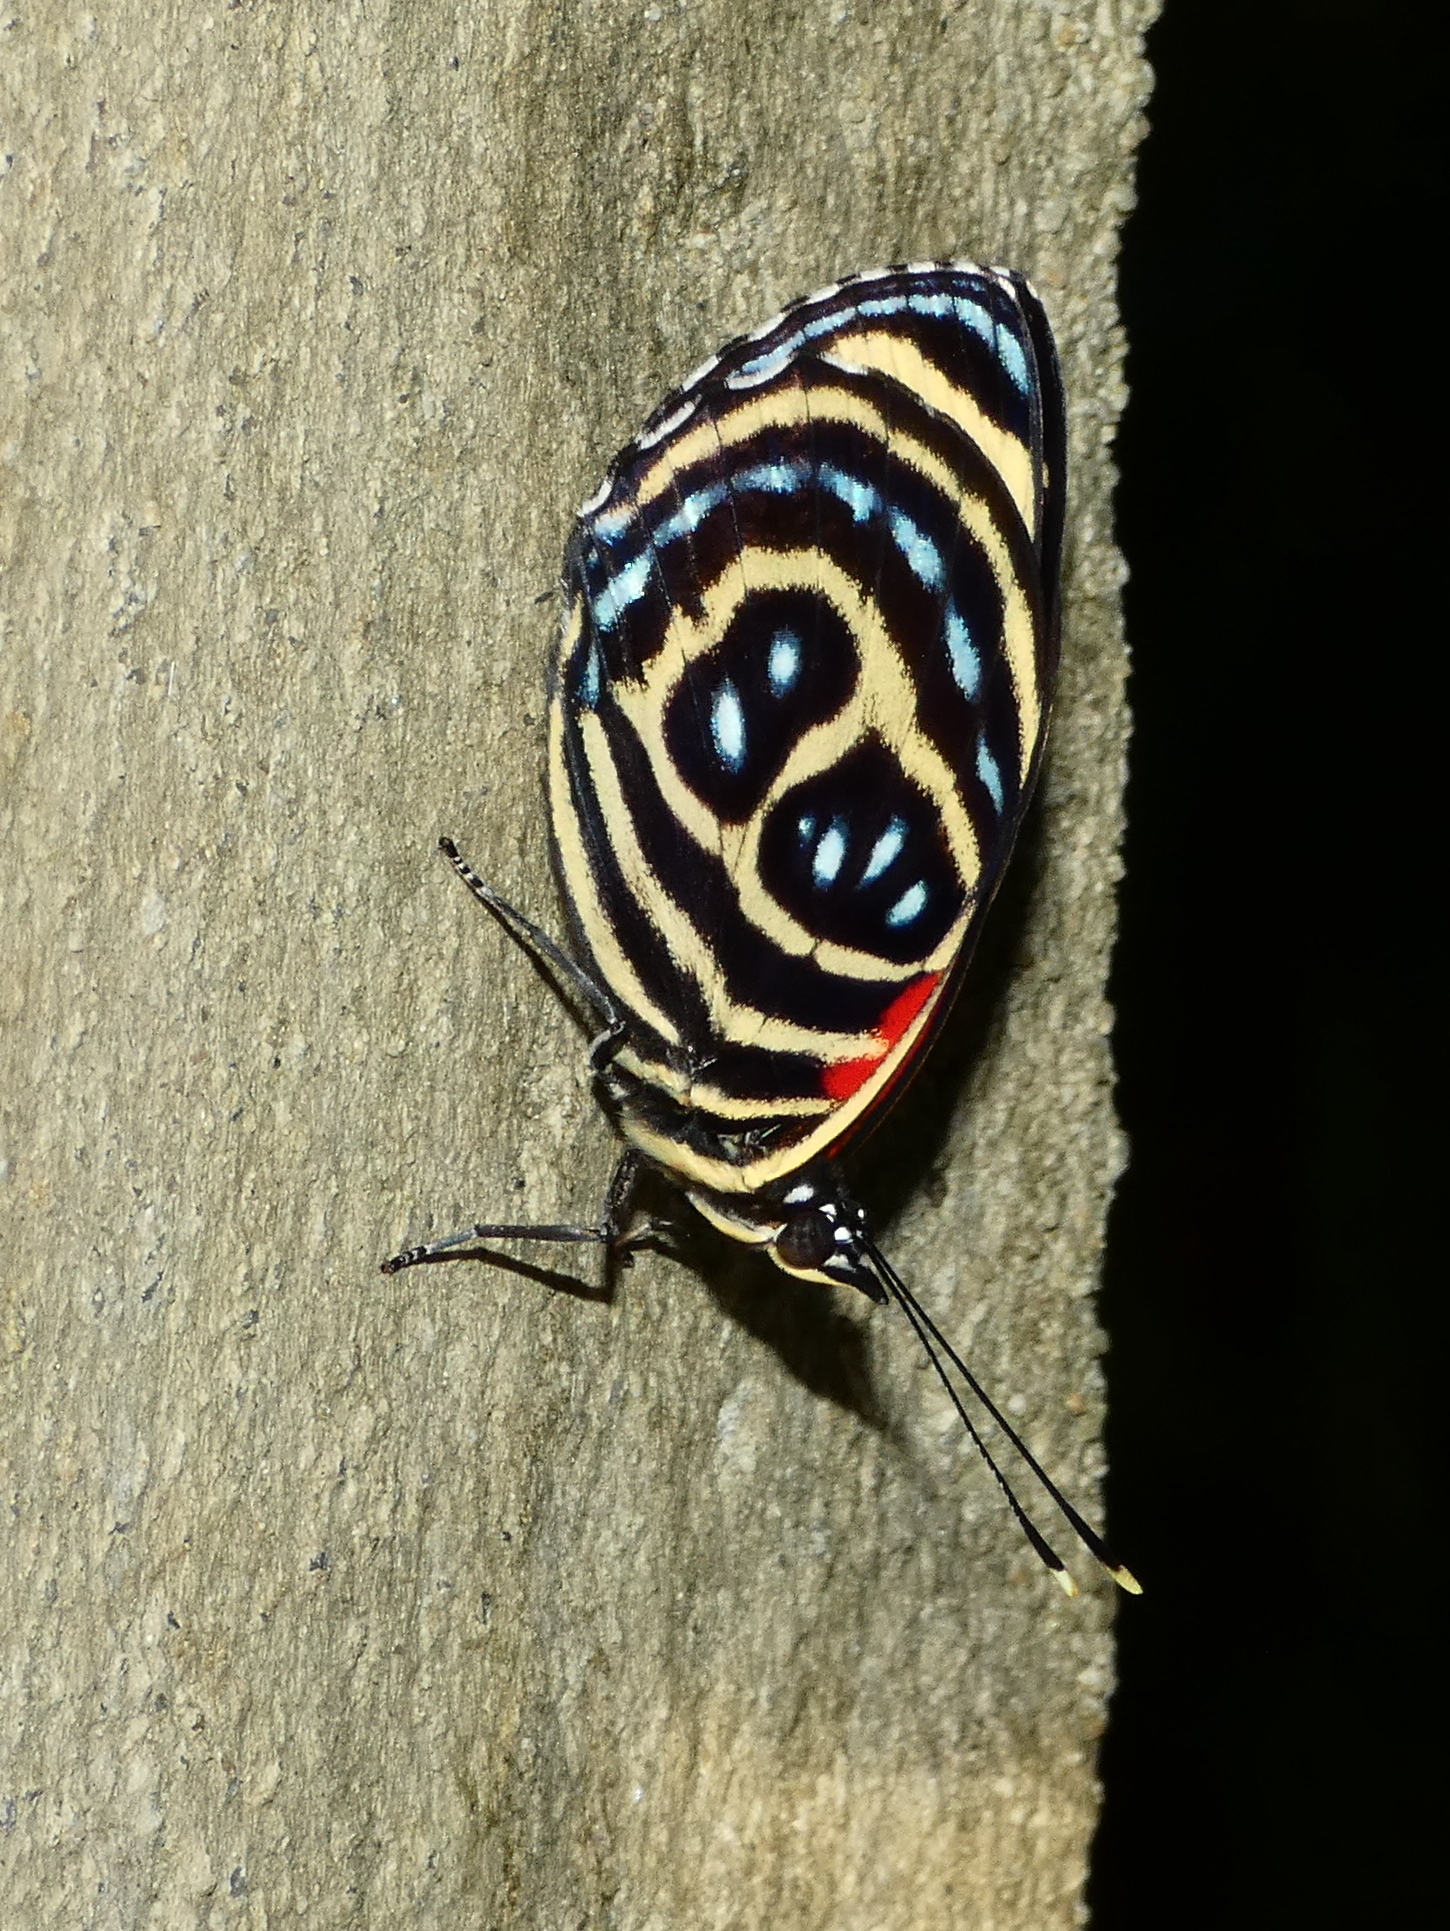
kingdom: Animalia
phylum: Arthropoda
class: Insecta
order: Lepidoptera
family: Nymphalidae
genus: Catagramma
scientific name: Catagramma pygas
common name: Godart's numberwing
